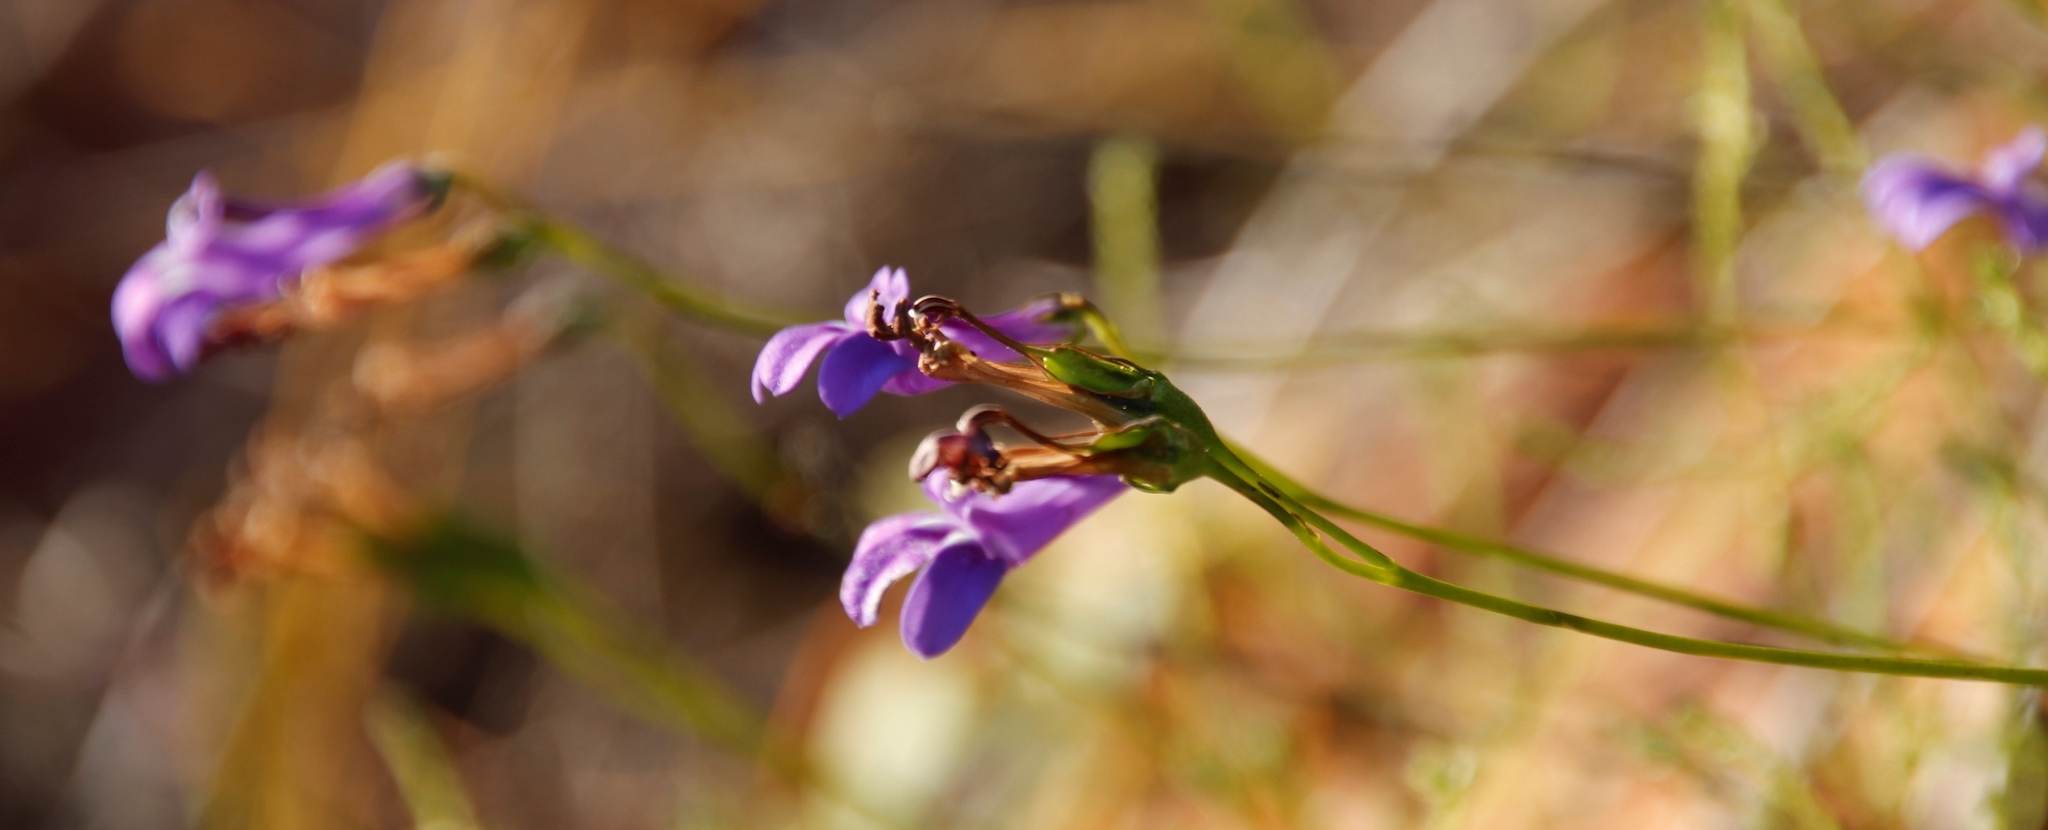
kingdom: Plantae
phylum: Tracheophyta
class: Magnoliopsida
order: Asterales
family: Campanulaceae
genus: Lobelia
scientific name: Lobelia coronopifolia
